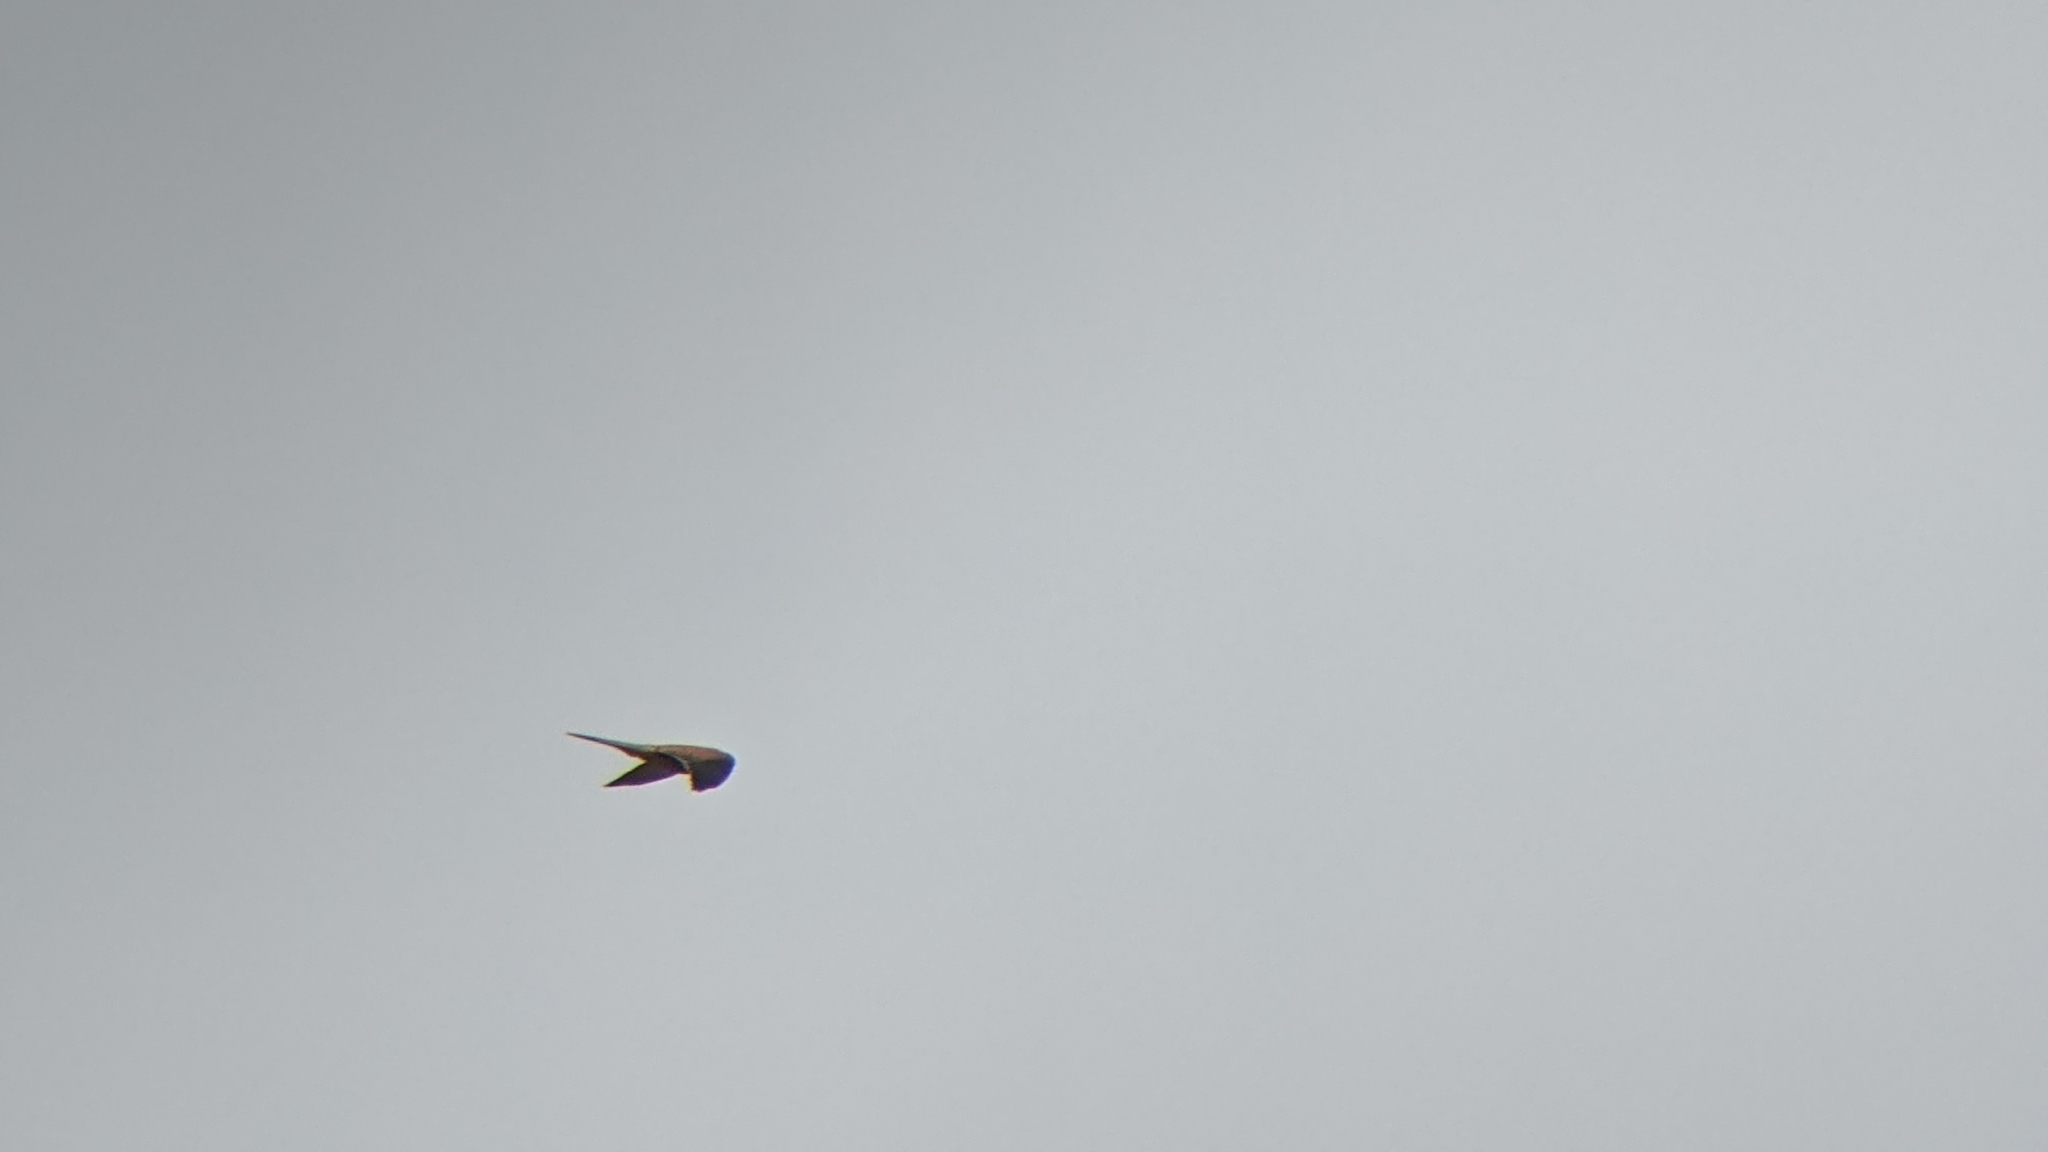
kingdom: Animalia
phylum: Chordata
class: Aves
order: Falconiformes
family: Falconidae
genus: Falco
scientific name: Falco tinnunculus
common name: Common kestrel
